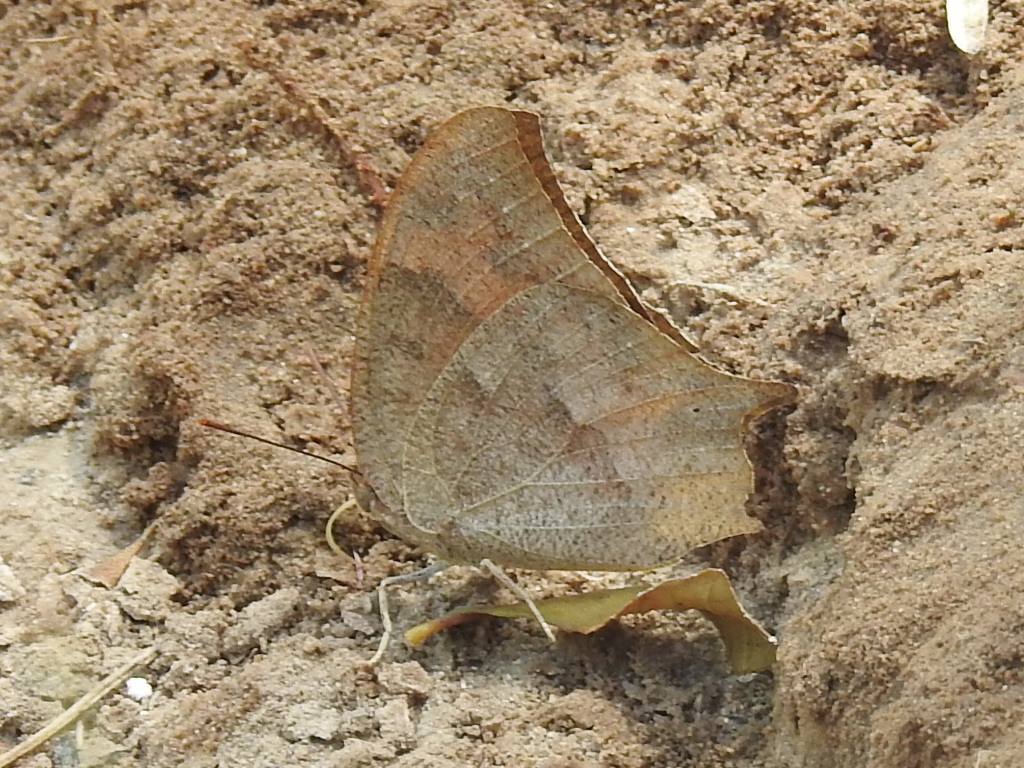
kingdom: Animalia
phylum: Arthropoda
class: Insecta
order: Lepidoptera
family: Nymphalidae
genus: Anaea
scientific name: Anaea andria
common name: Goatweed leafwing
